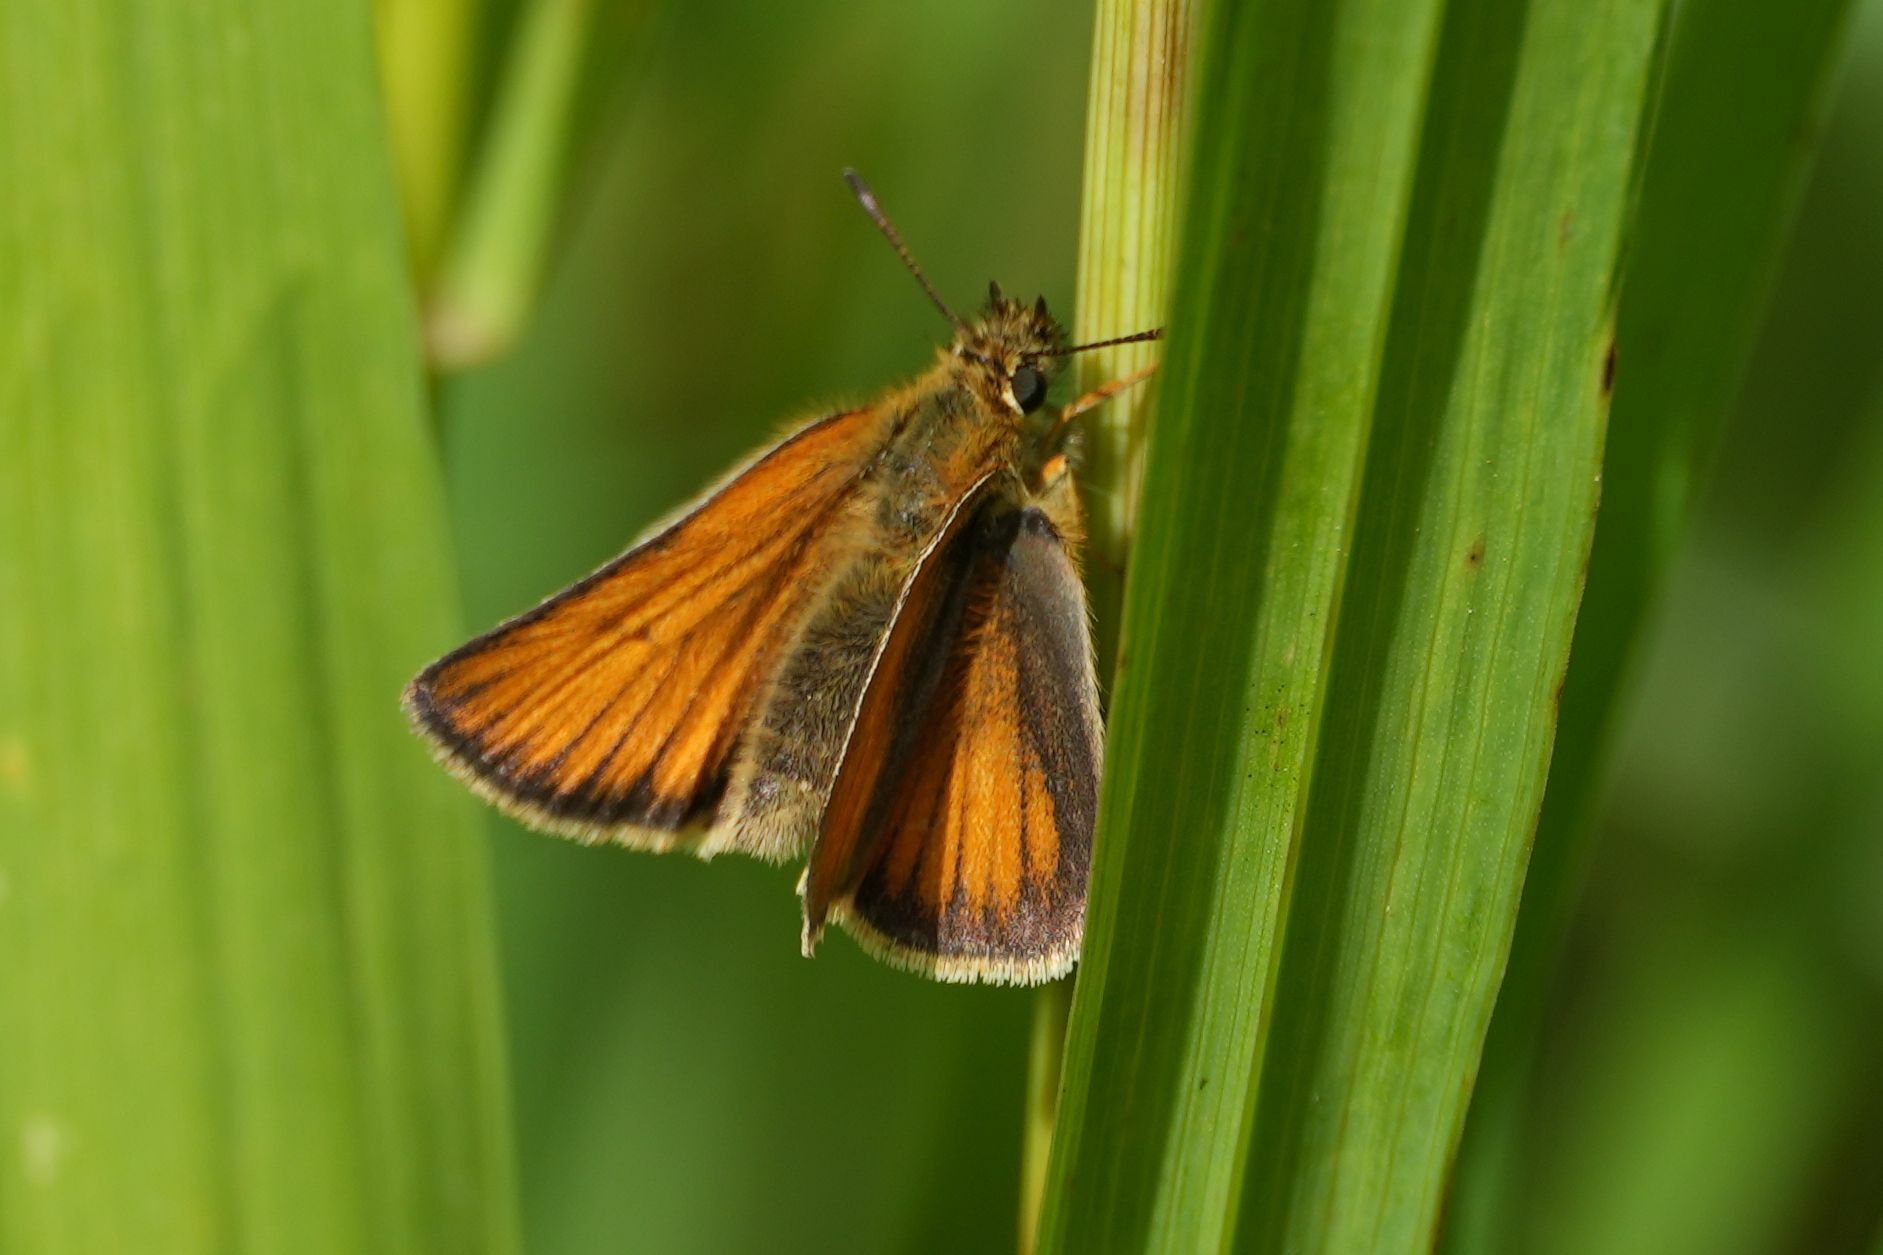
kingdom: Animalia
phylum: Arthropoda
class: Insecta
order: Lepidoptera
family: Hesperiidae
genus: Thymelicus
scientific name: Thymelicus lineola
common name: Essex skipper
